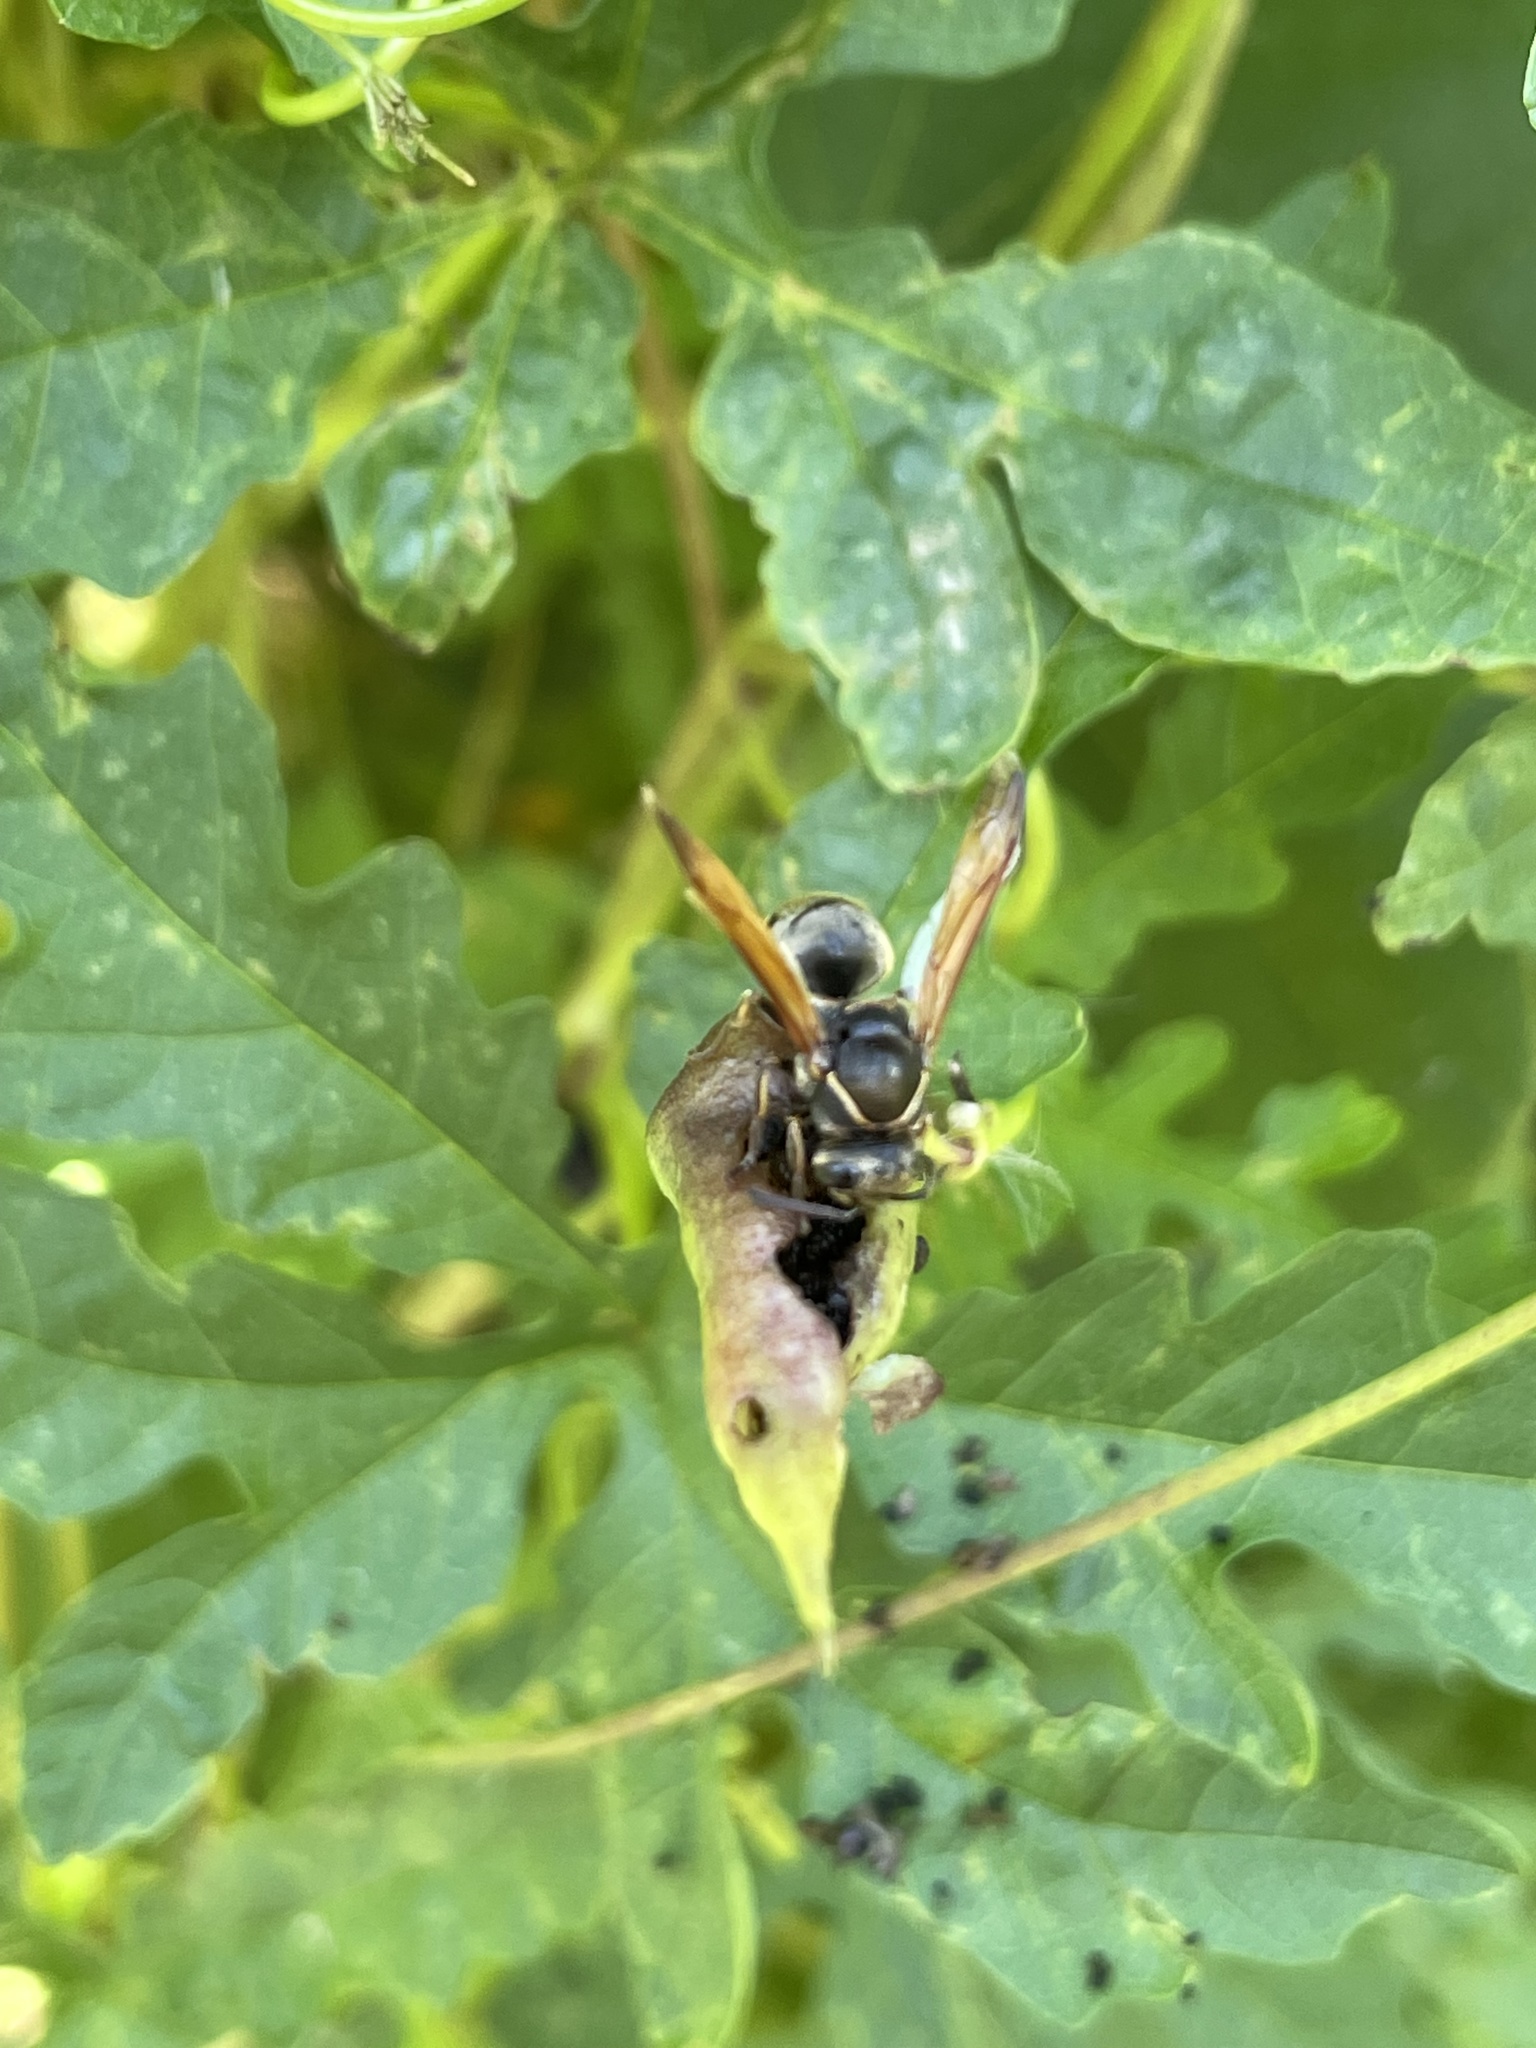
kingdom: Animalia
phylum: Arthropoda
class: Insecta
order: Hymenoptera
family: Eumenidae
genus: Pachodynerus
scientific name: Pachodynerus nasidens
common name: Key hole wasp
